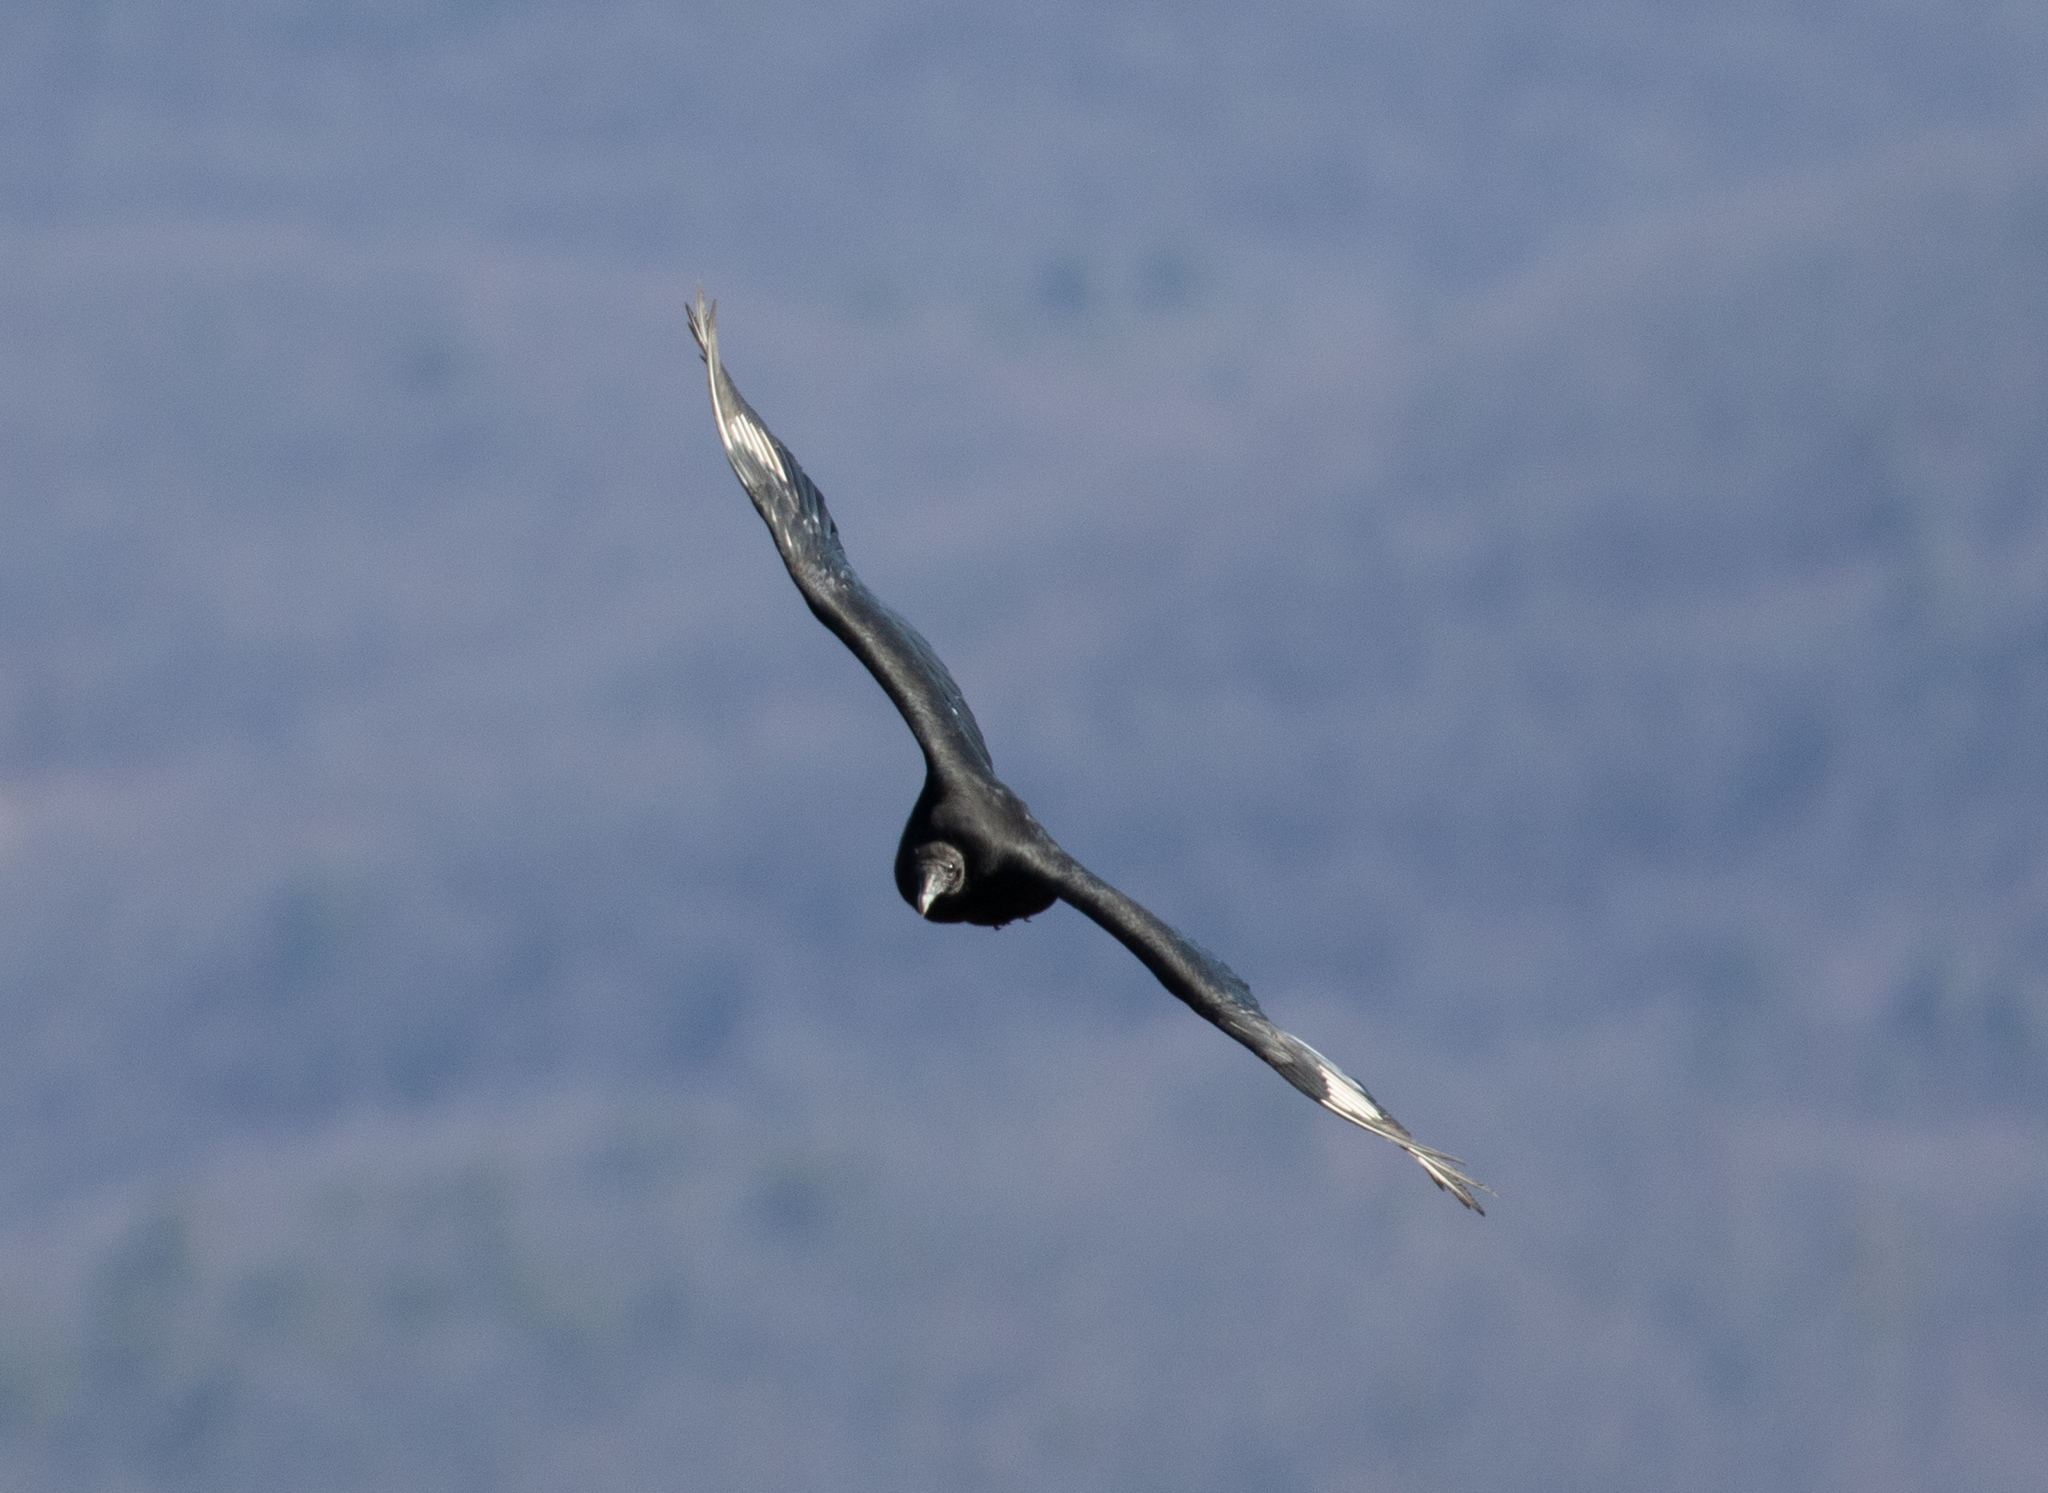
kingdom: Animalia
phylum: Chordata
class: Aves
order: Accipitriformes
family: Cathartidae
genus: Coragyps
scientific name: Coragyps atratus
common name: Black vulture
